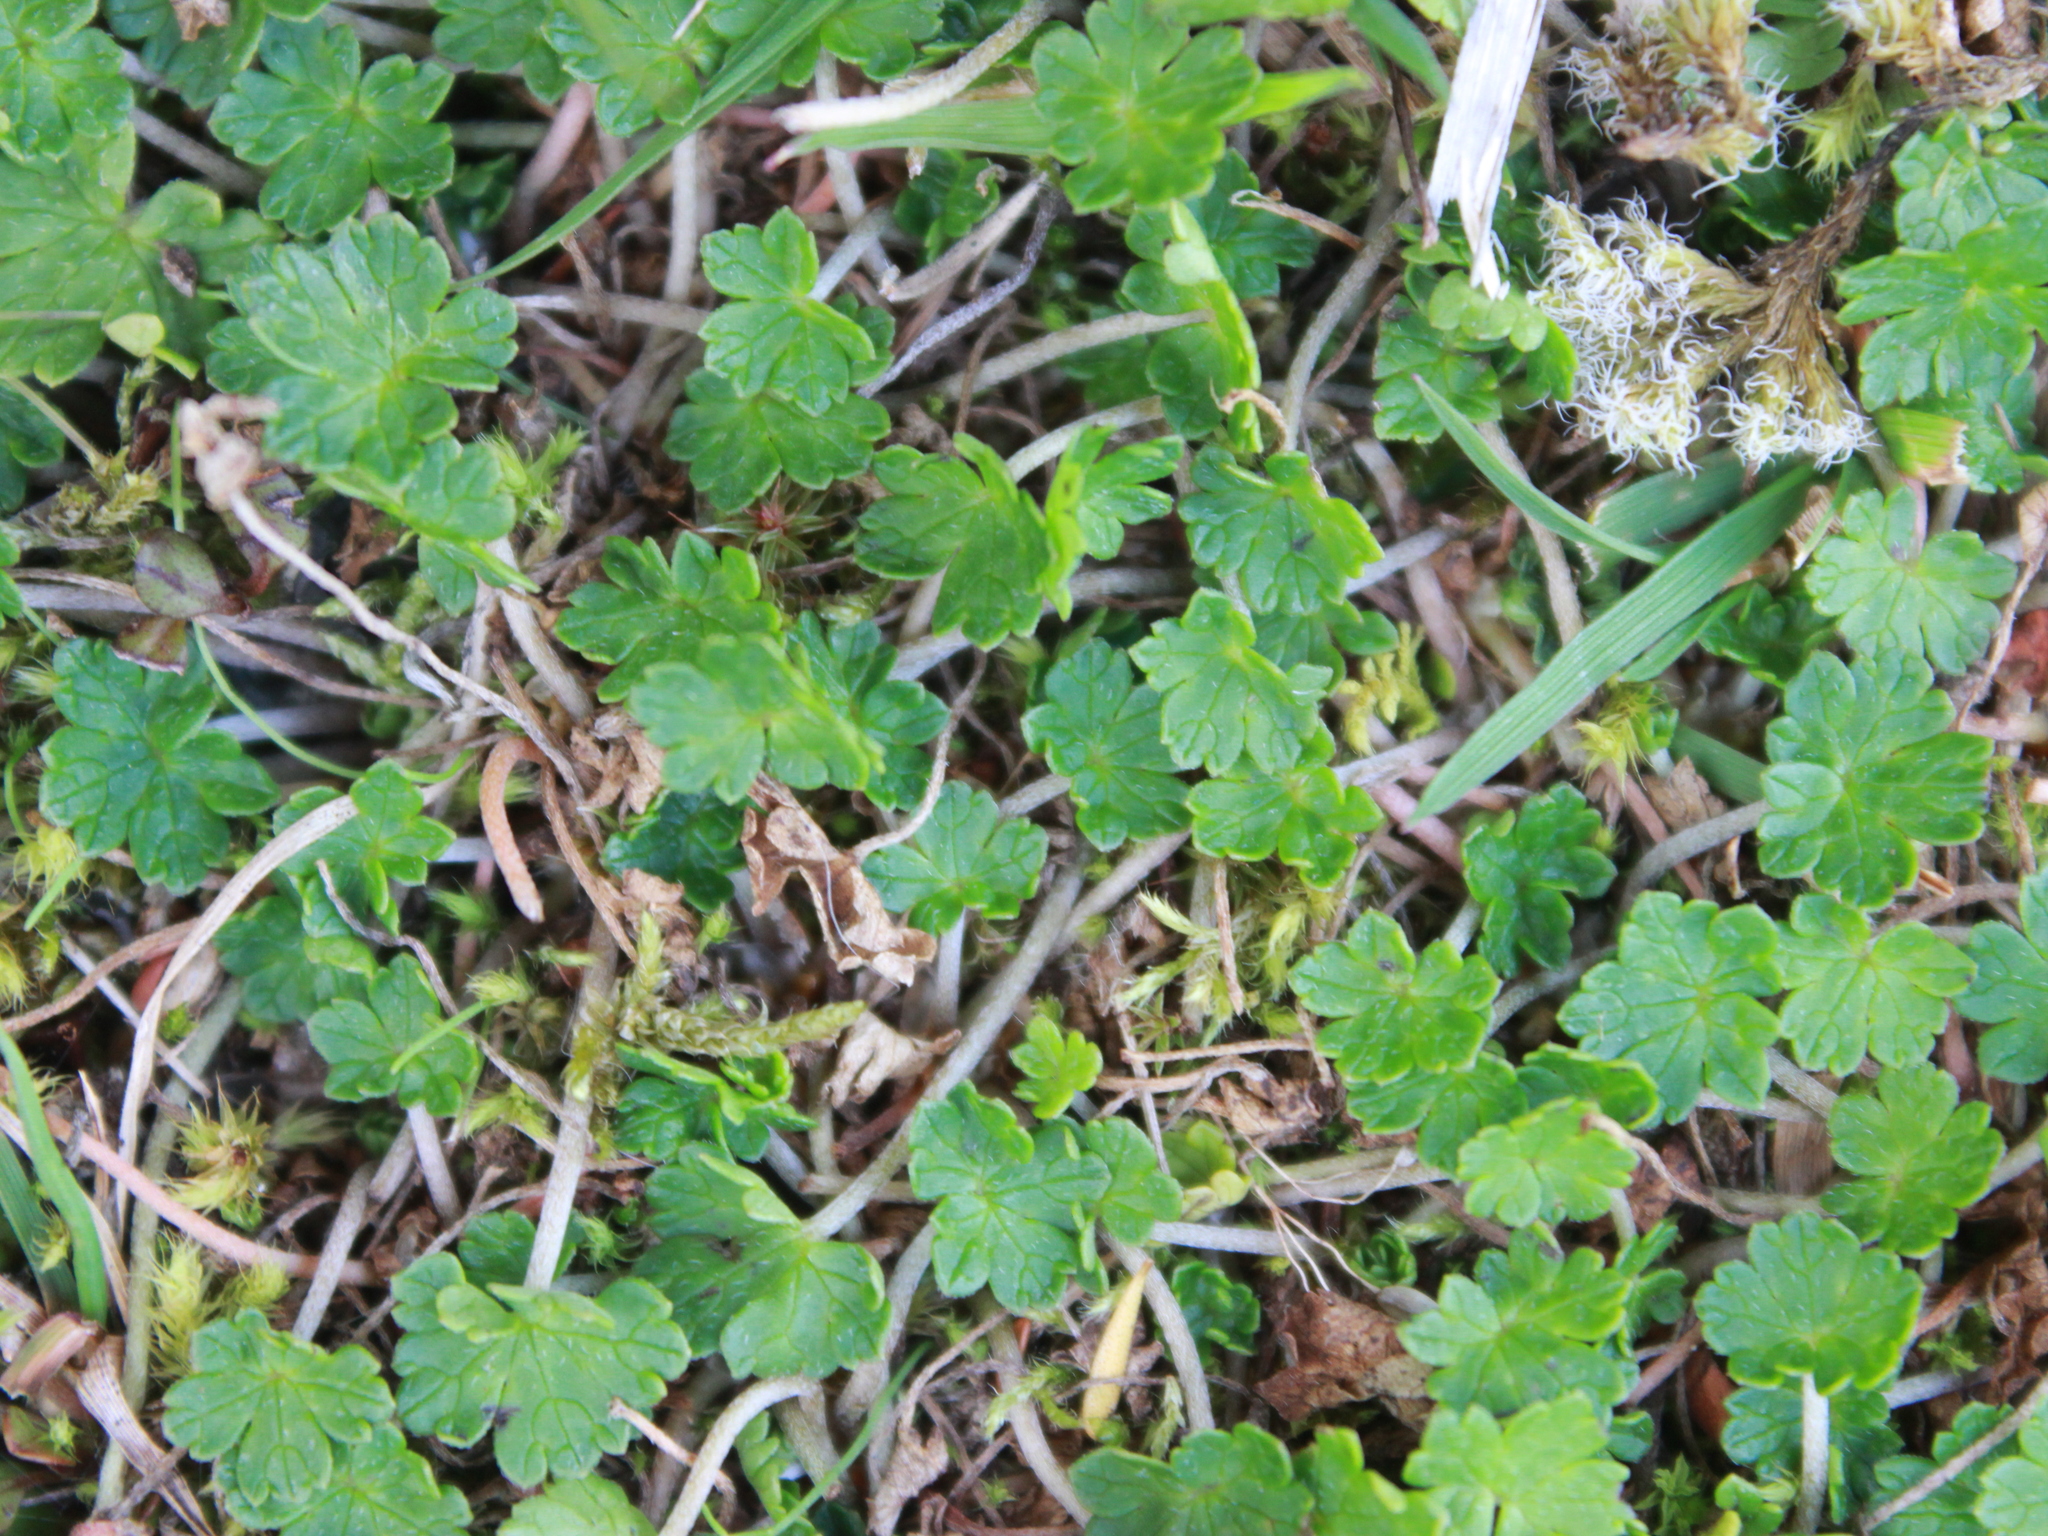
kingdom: Plantae
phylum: Tracheophyta
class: Magnoliopsida
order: Geraniales
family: Geraniaceae
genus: Geranium
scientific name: Geranium brevicaule
